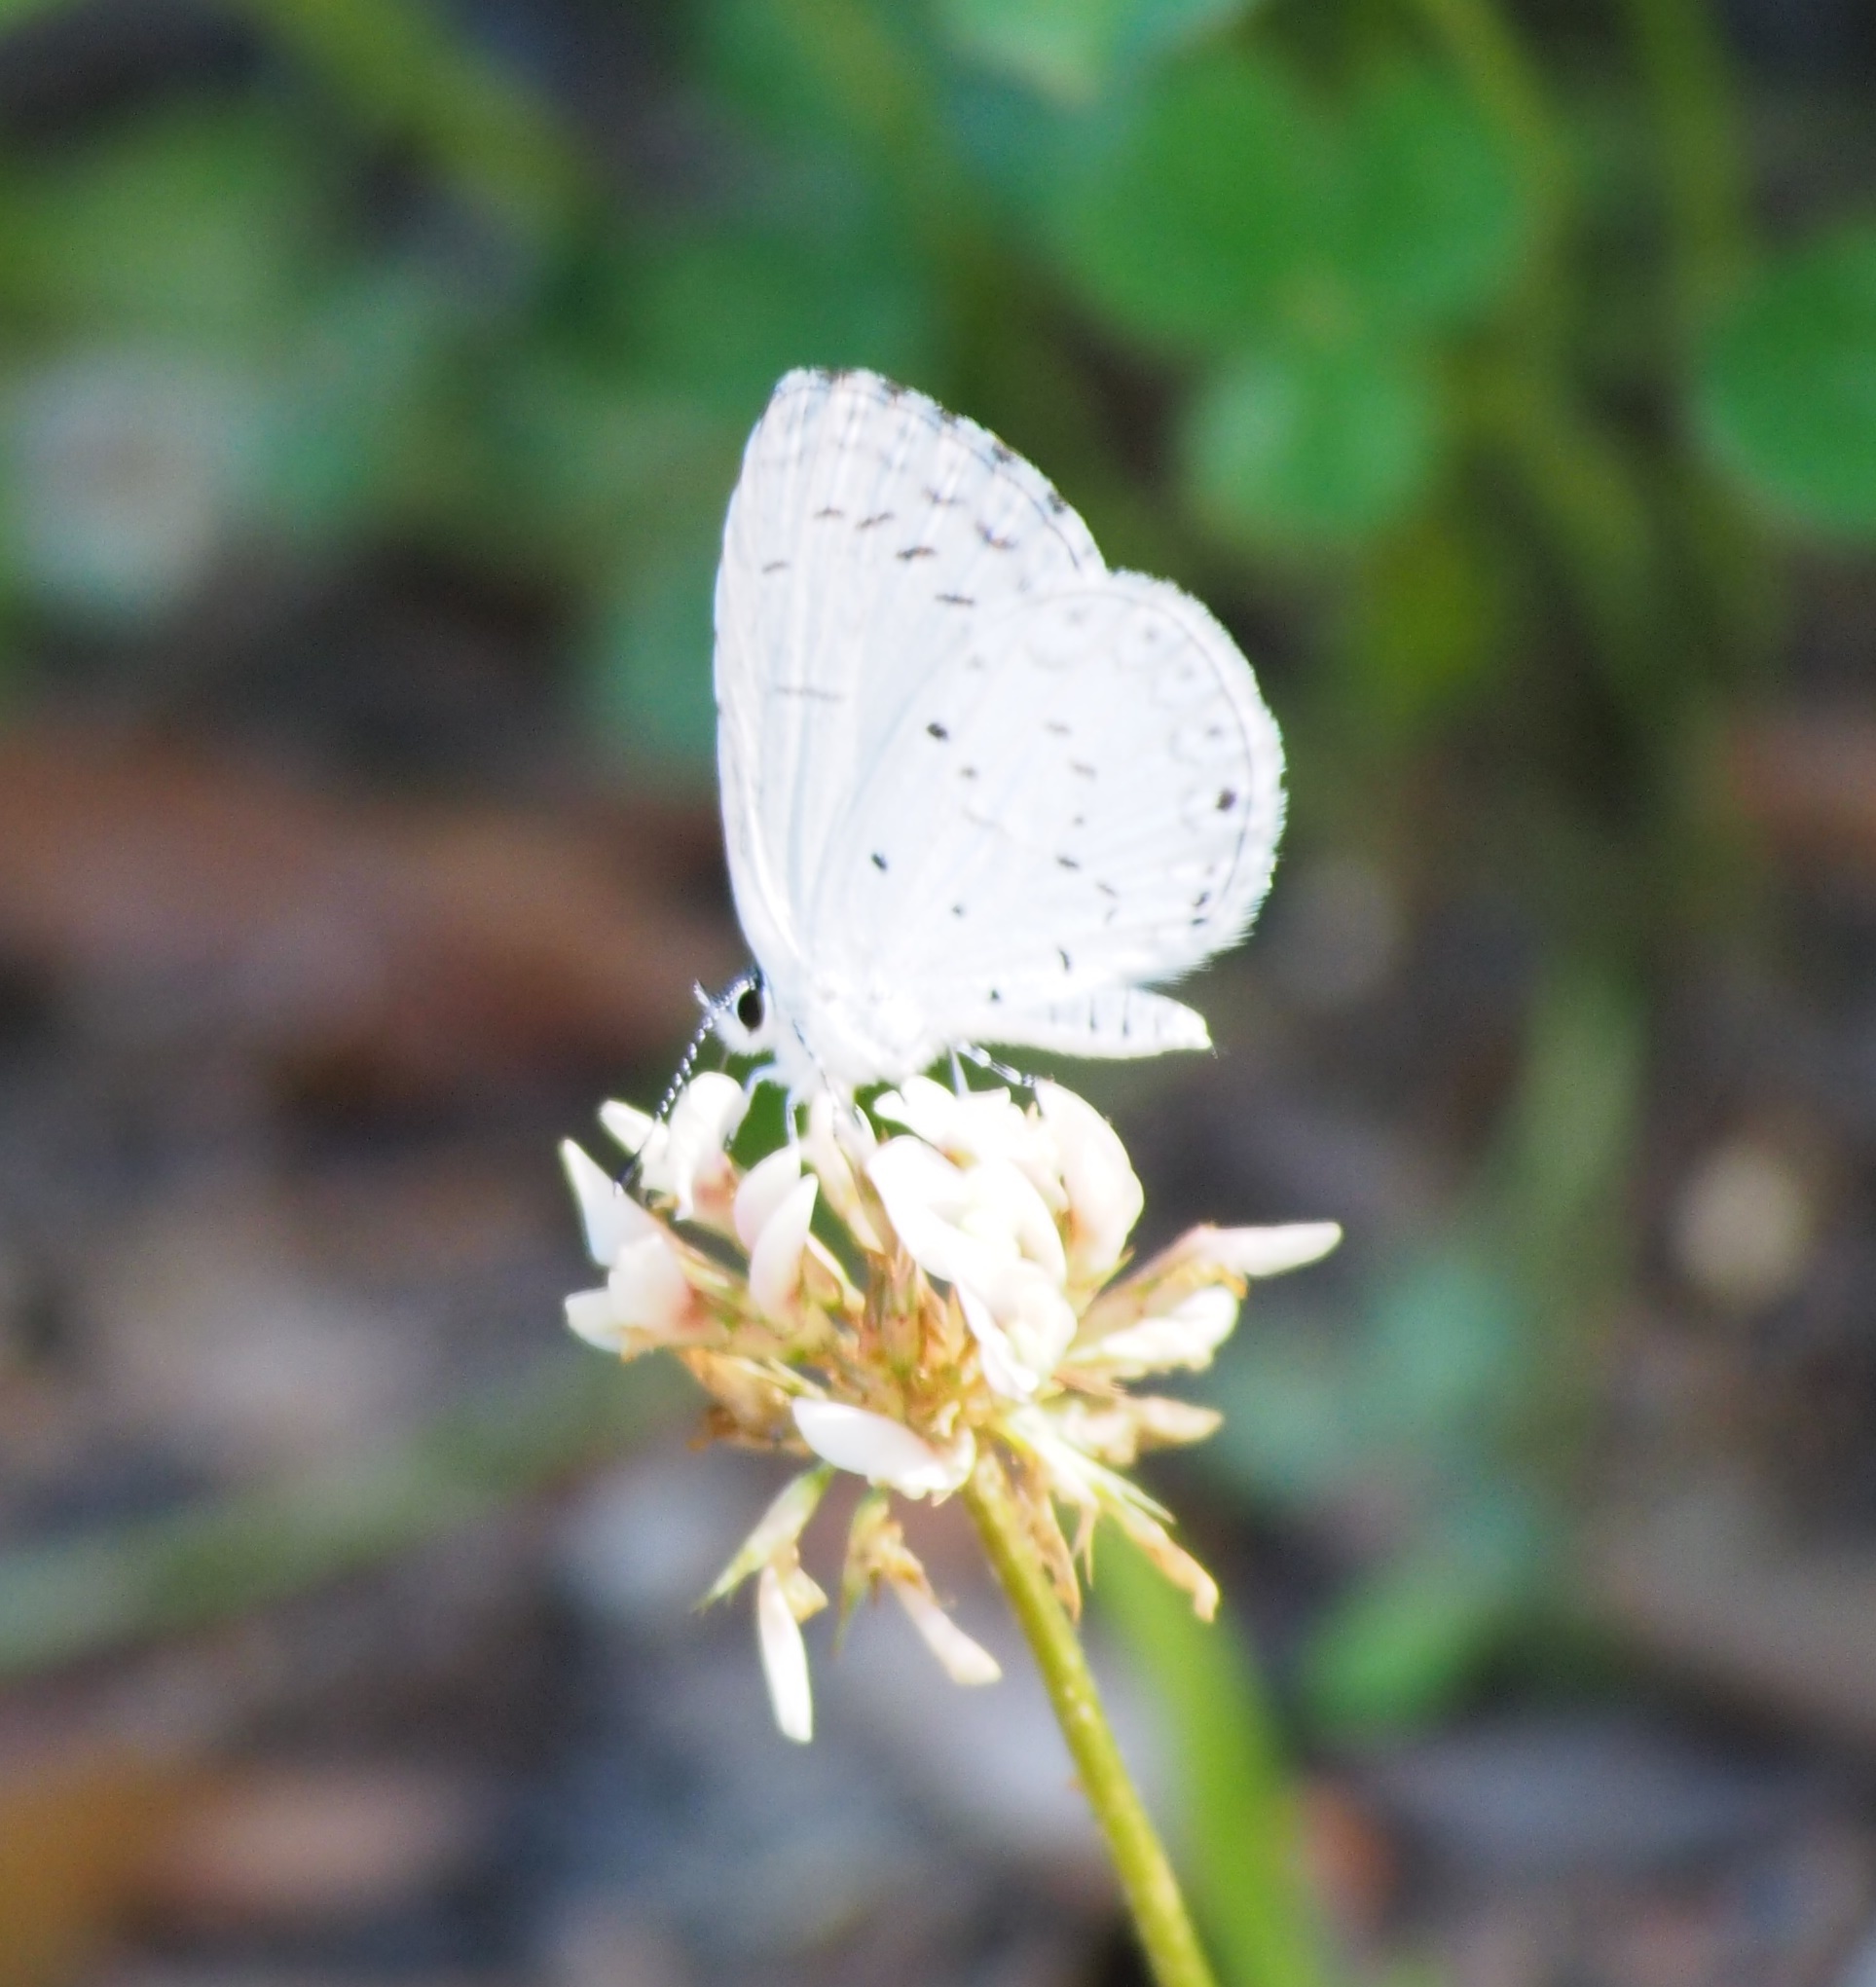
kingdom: Animalia
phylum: Arthropoda
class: Insecta
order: Lepidoptera
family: Lycaenidae
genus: Cyaniris
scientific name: Cyaniris neglecta
